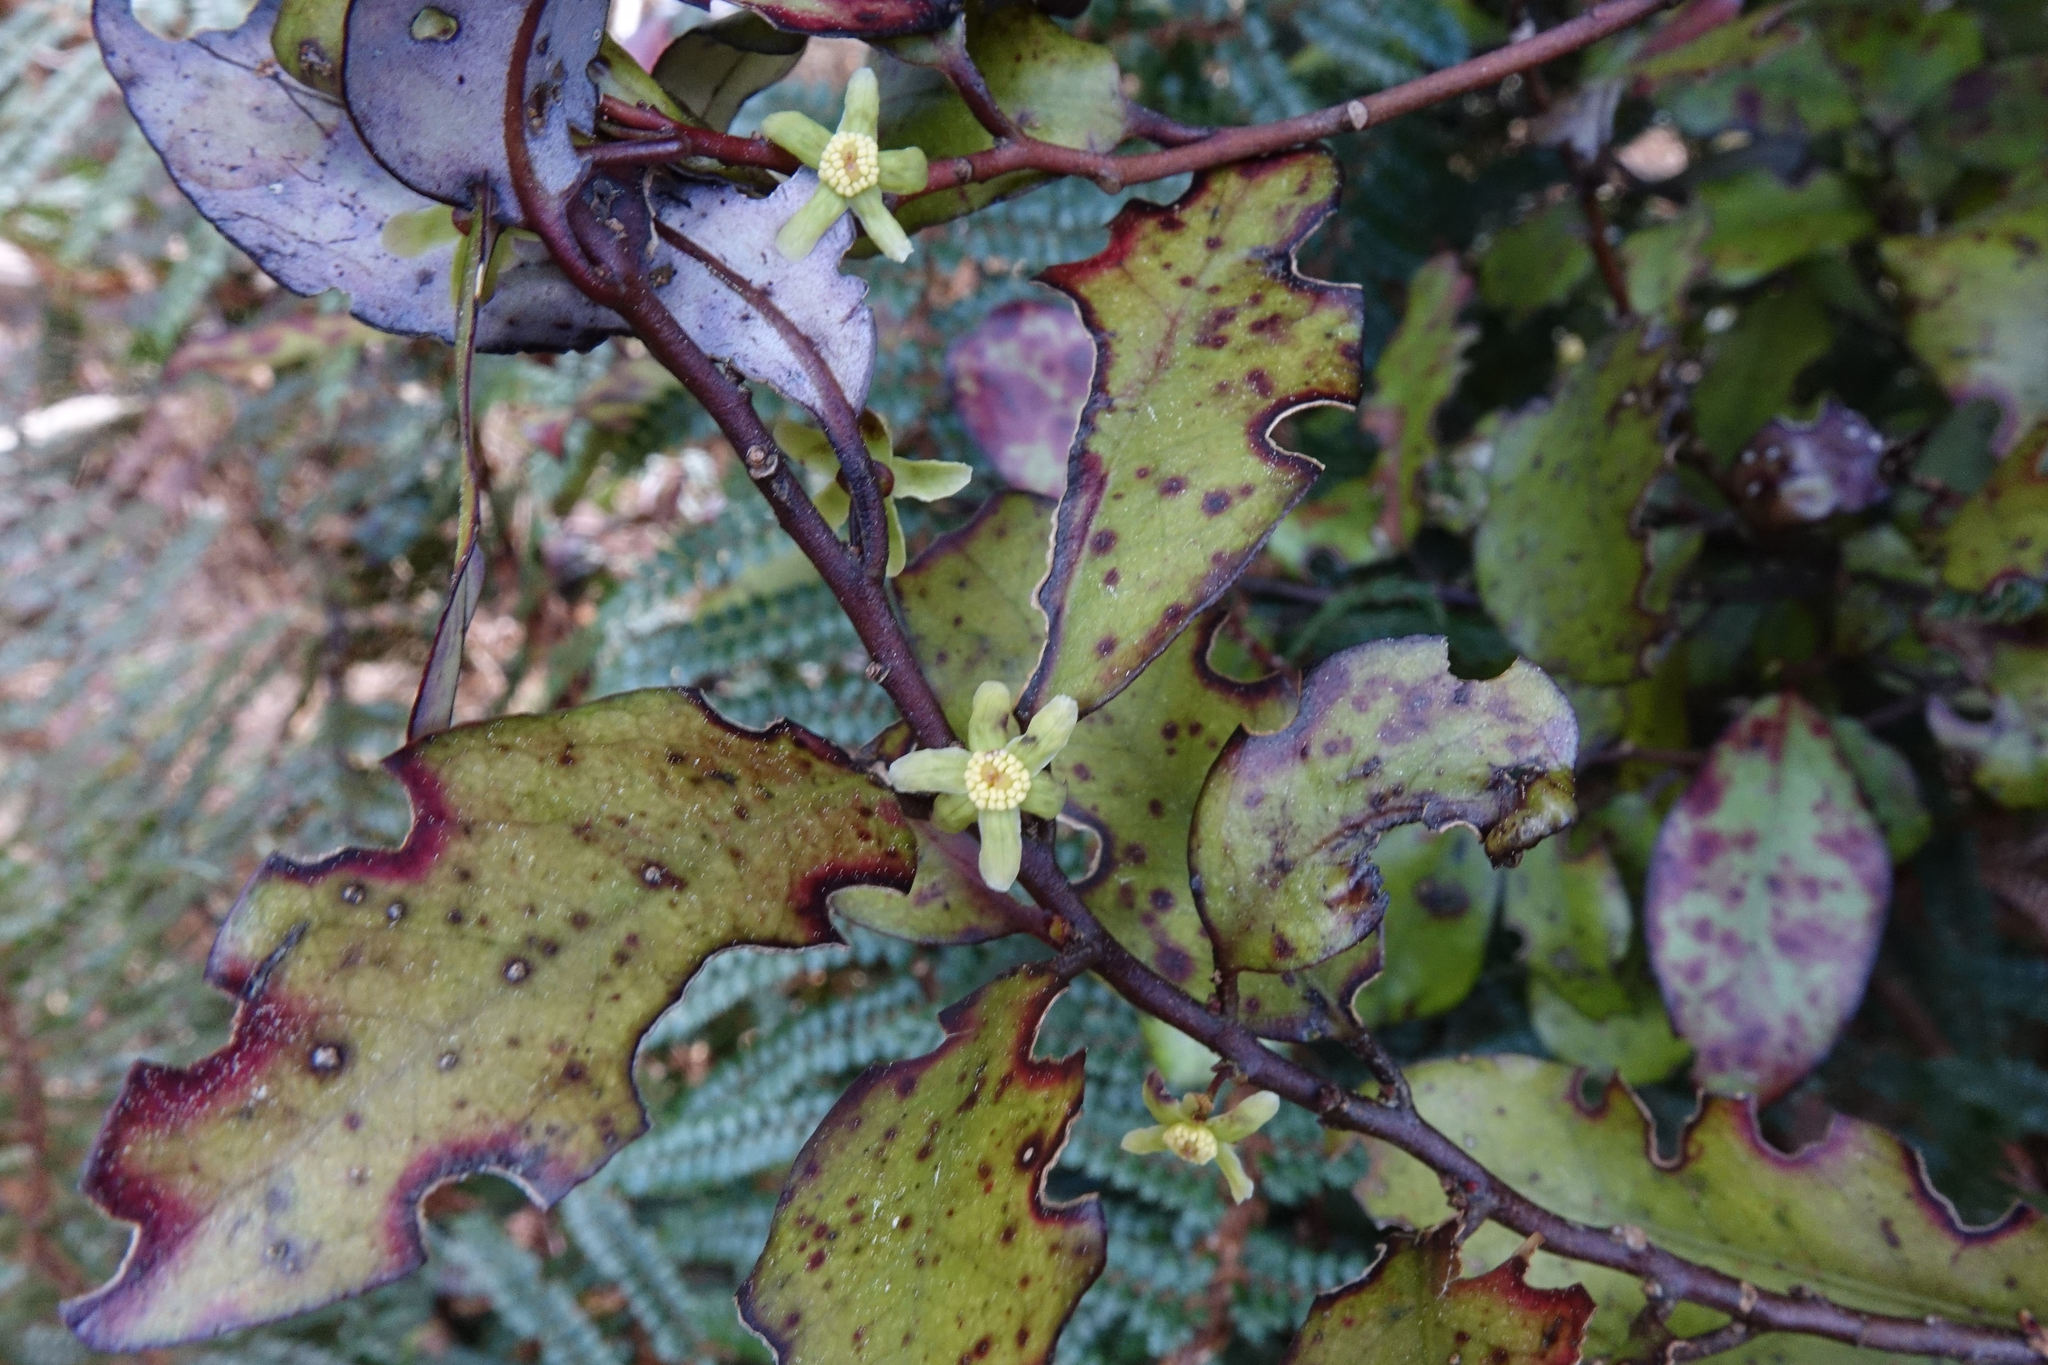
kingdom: Plantae
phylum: Tracheophyta
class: Magnoliopsida
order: Canellales
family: Winteraceae
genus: Pseudowintera
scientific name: Pseudowintera colorata
